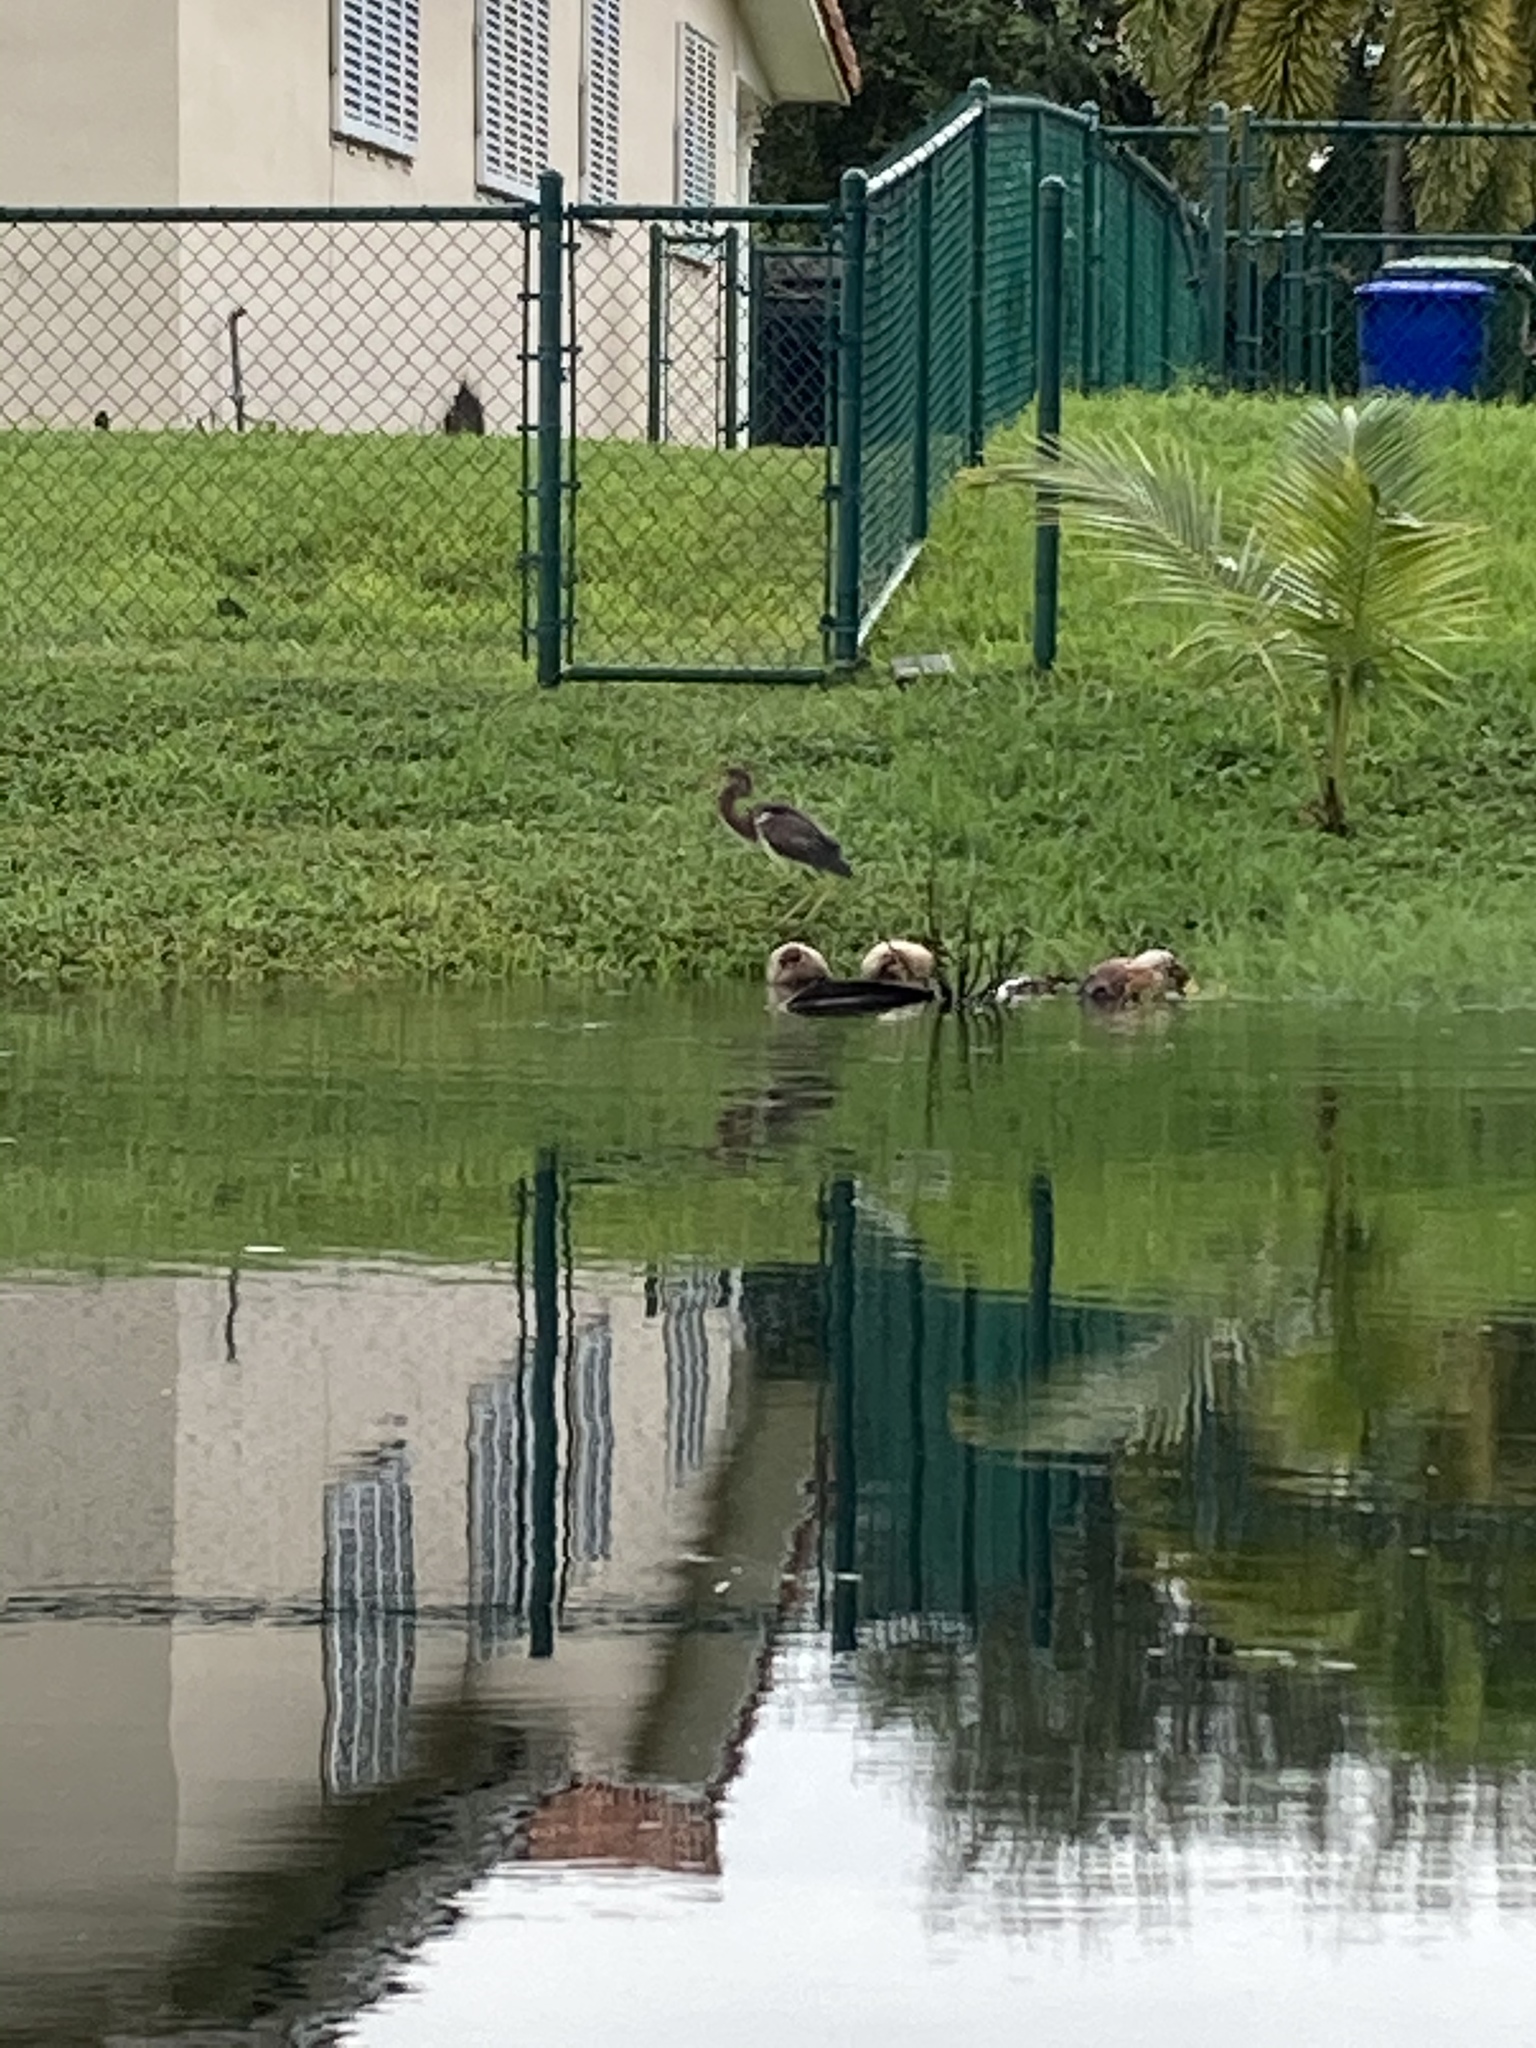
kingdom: Animalia
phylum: Chordata
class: Aves
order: Pelecaniformes
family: Ardeidae
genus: Egretta
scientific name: Egretta tricolor
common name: Tricolored heron
